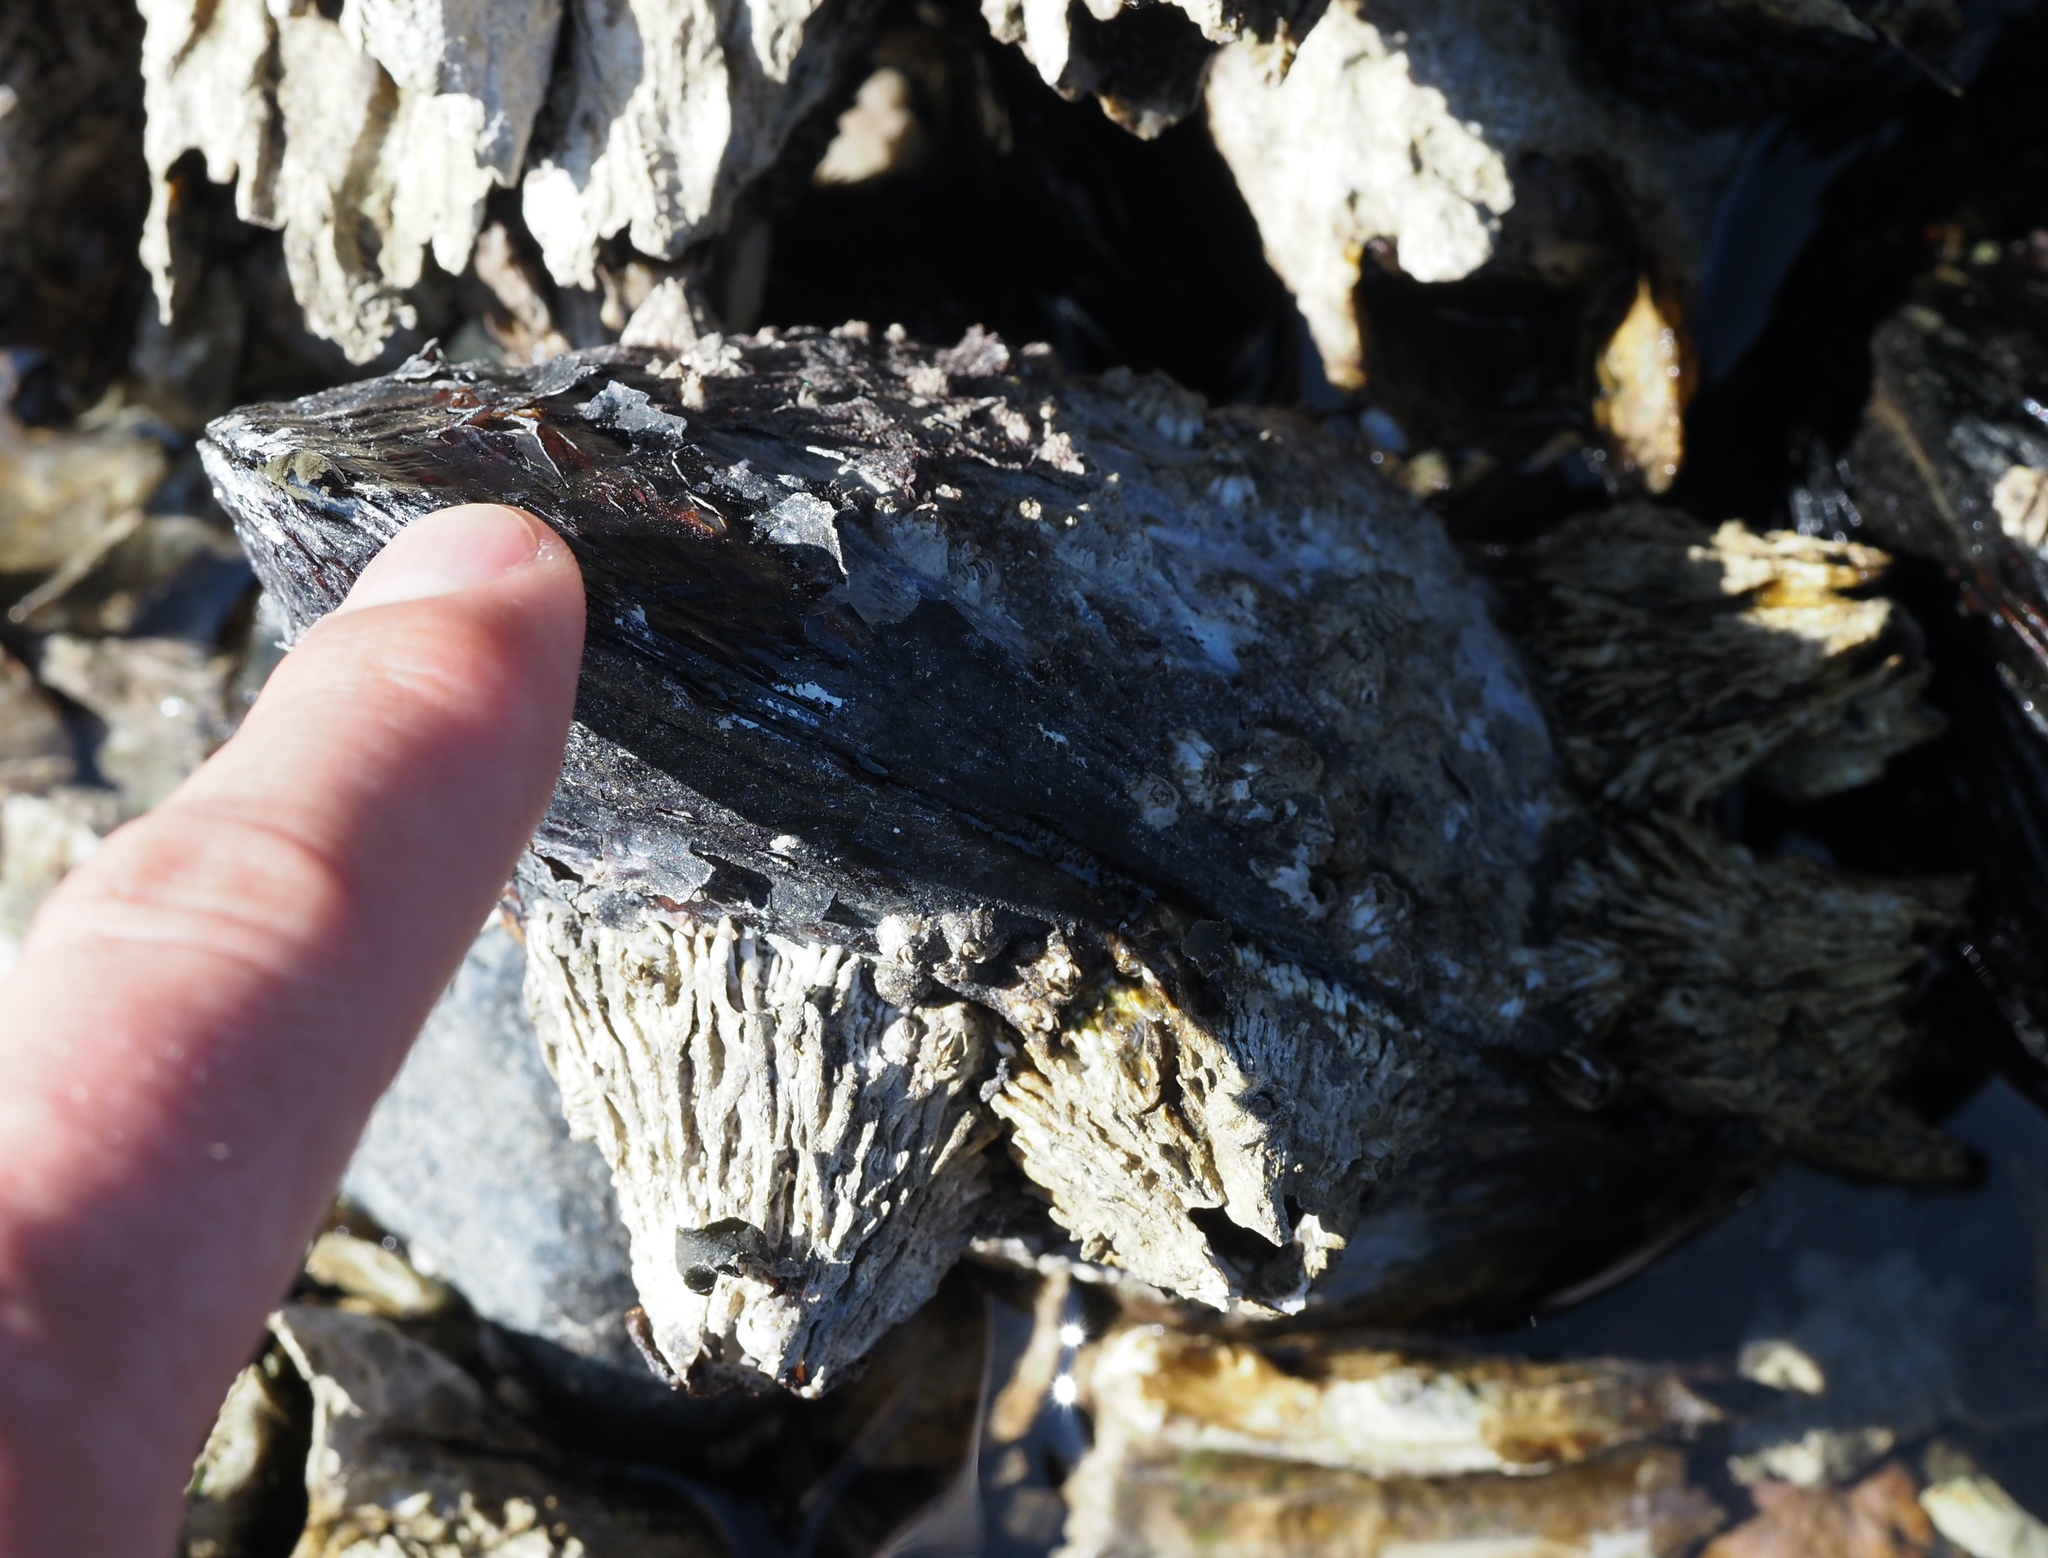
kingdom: Animalia
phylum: Mollusca
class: Bivalvia
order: Mytilida
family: Mytilidae
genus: Mytilus
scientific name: Mytilus californianus
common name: California mussel
